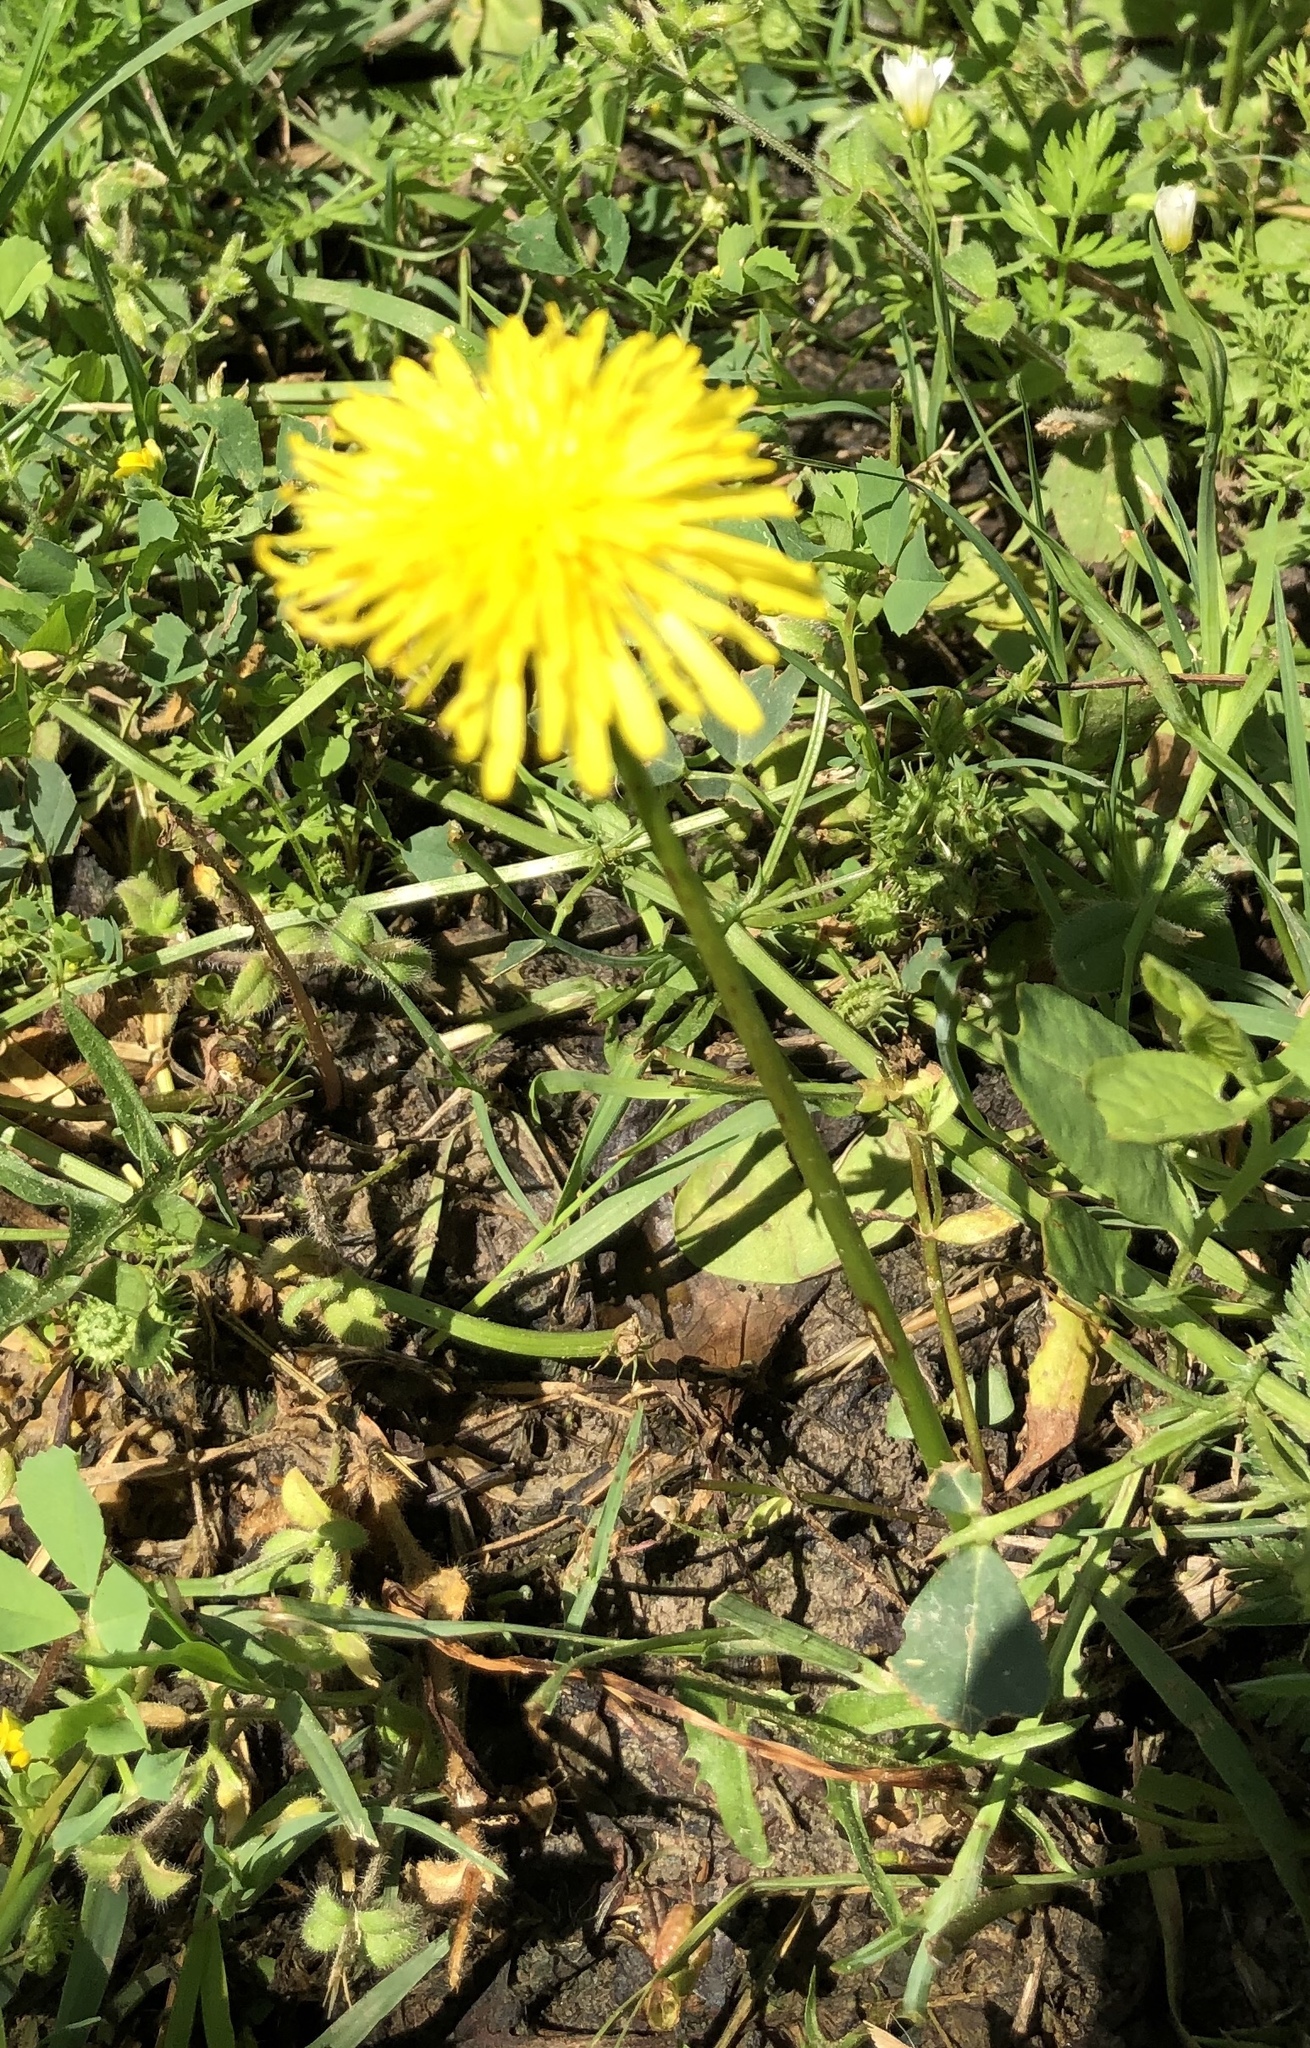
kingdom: Plantae
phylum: Tracheophyta
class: Magnoliopsida
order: Asterales
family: Asteraceae
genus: Taraxacum
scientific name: Taraxacum officinale
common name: Common dandelion
